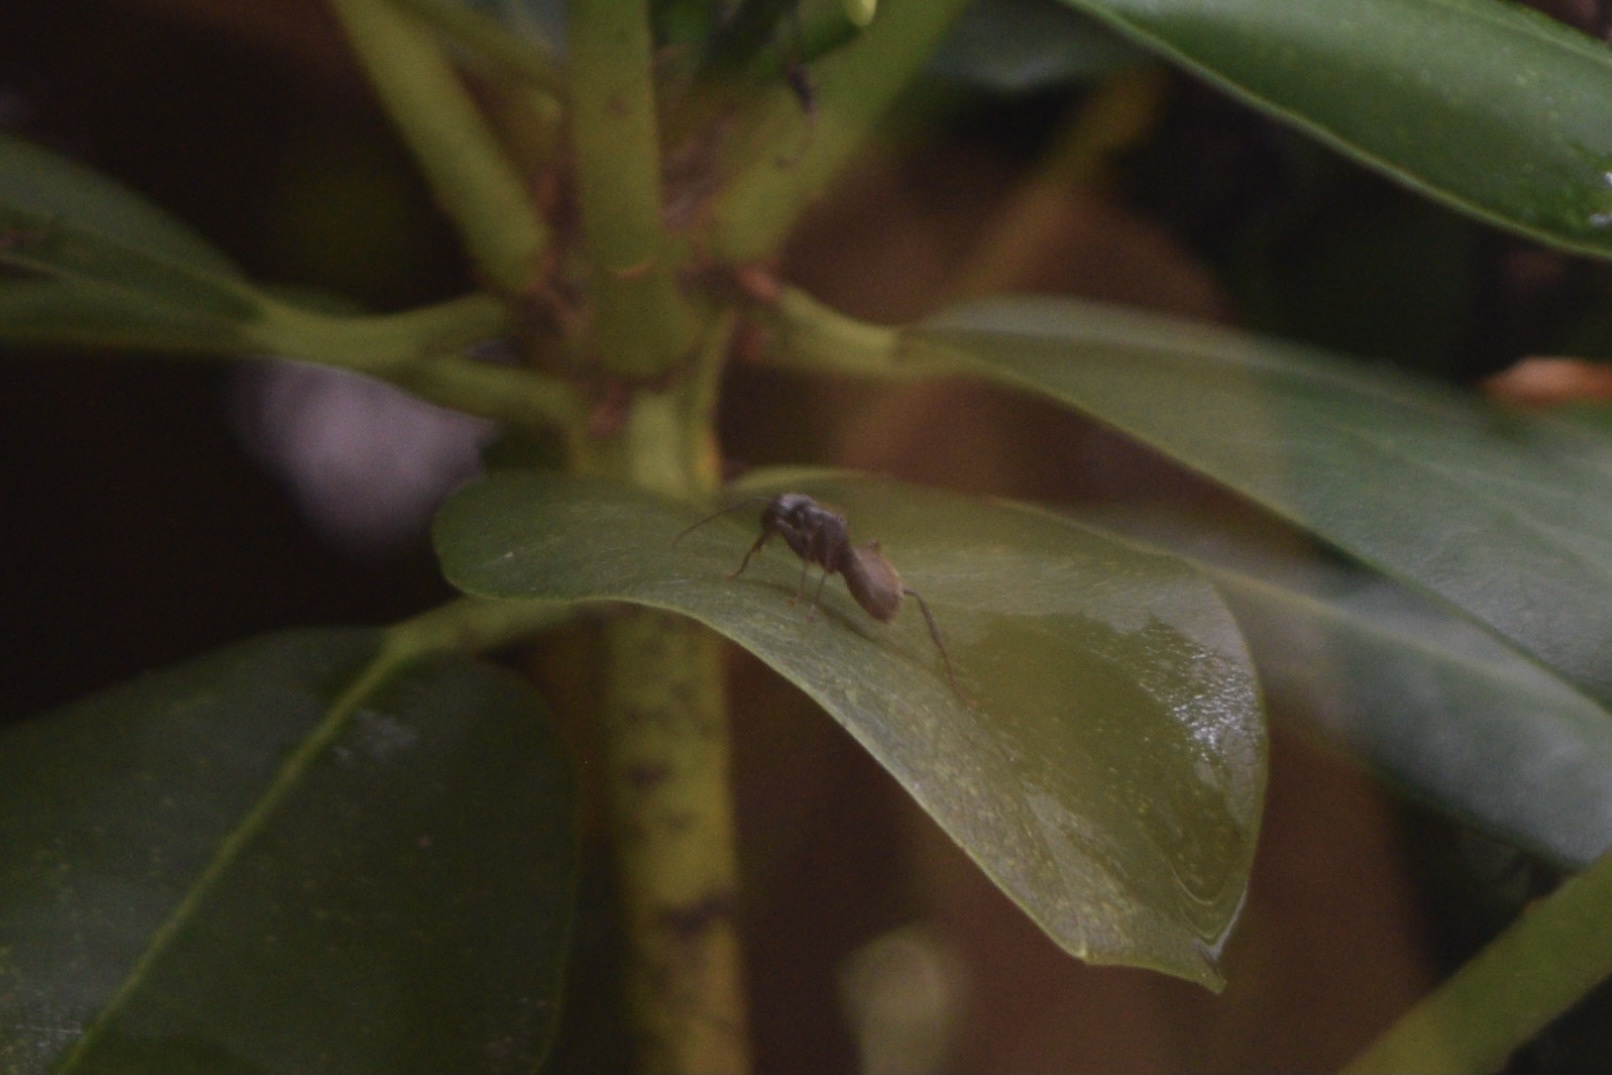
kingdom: Animalia
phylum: Arthropoda
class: Insecta
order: Hymenoptera
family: Formicidae
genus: Camponotus
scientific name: Camponotus pennsylvanicus
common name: Black carpenter ant
